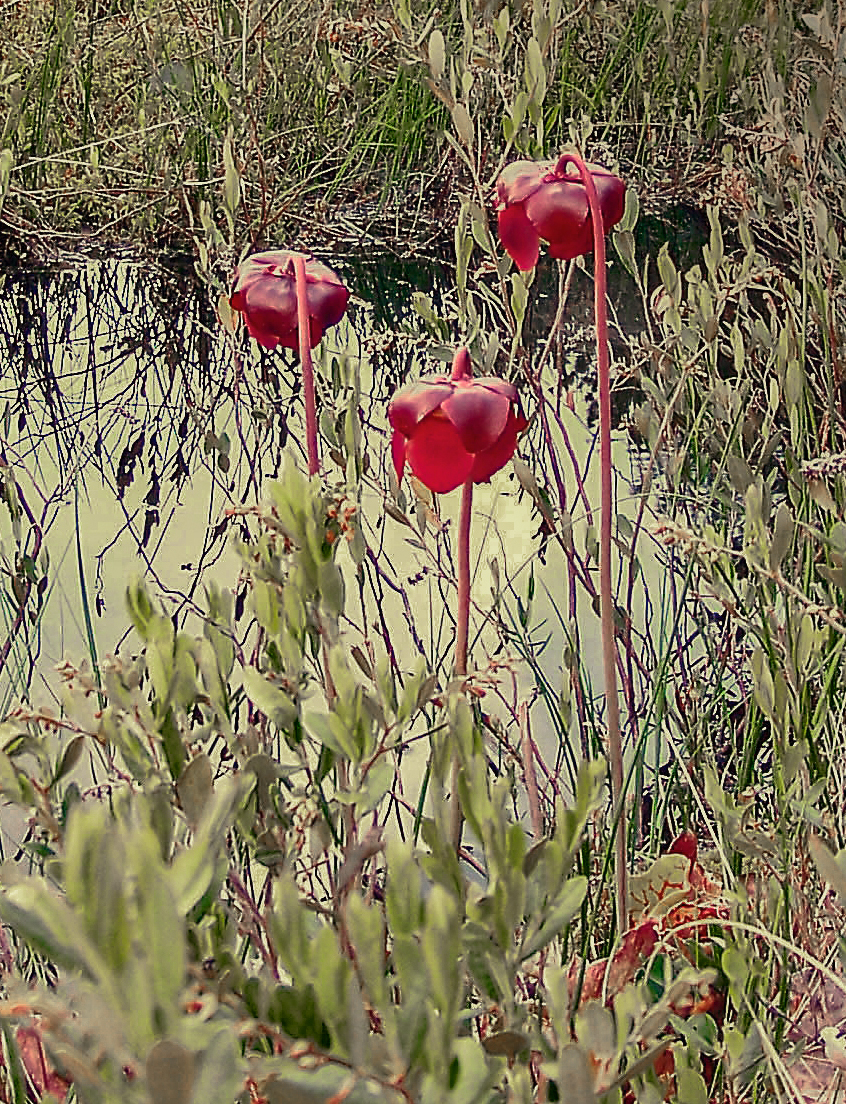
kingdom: Plantae
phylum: Tracheophyta
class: Magnoliopsida
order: Ericales
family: Sarraceniaceae
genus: Sarracenia
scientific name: Sarracenia purpurea
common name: Pitcherplant
